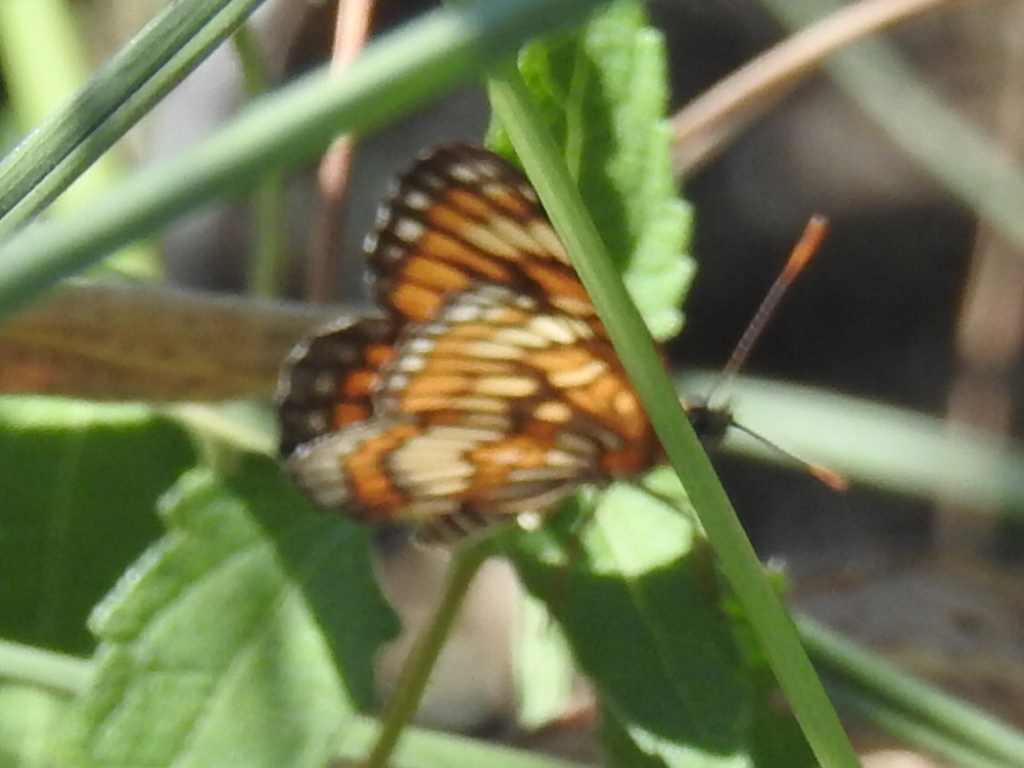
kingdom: Animalia
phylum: Arthropoda
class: Insecta
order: Lepidoptera
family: Nymphalidae
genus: Thessalia
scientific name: Thessalia theona
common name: Nymphalid moth
